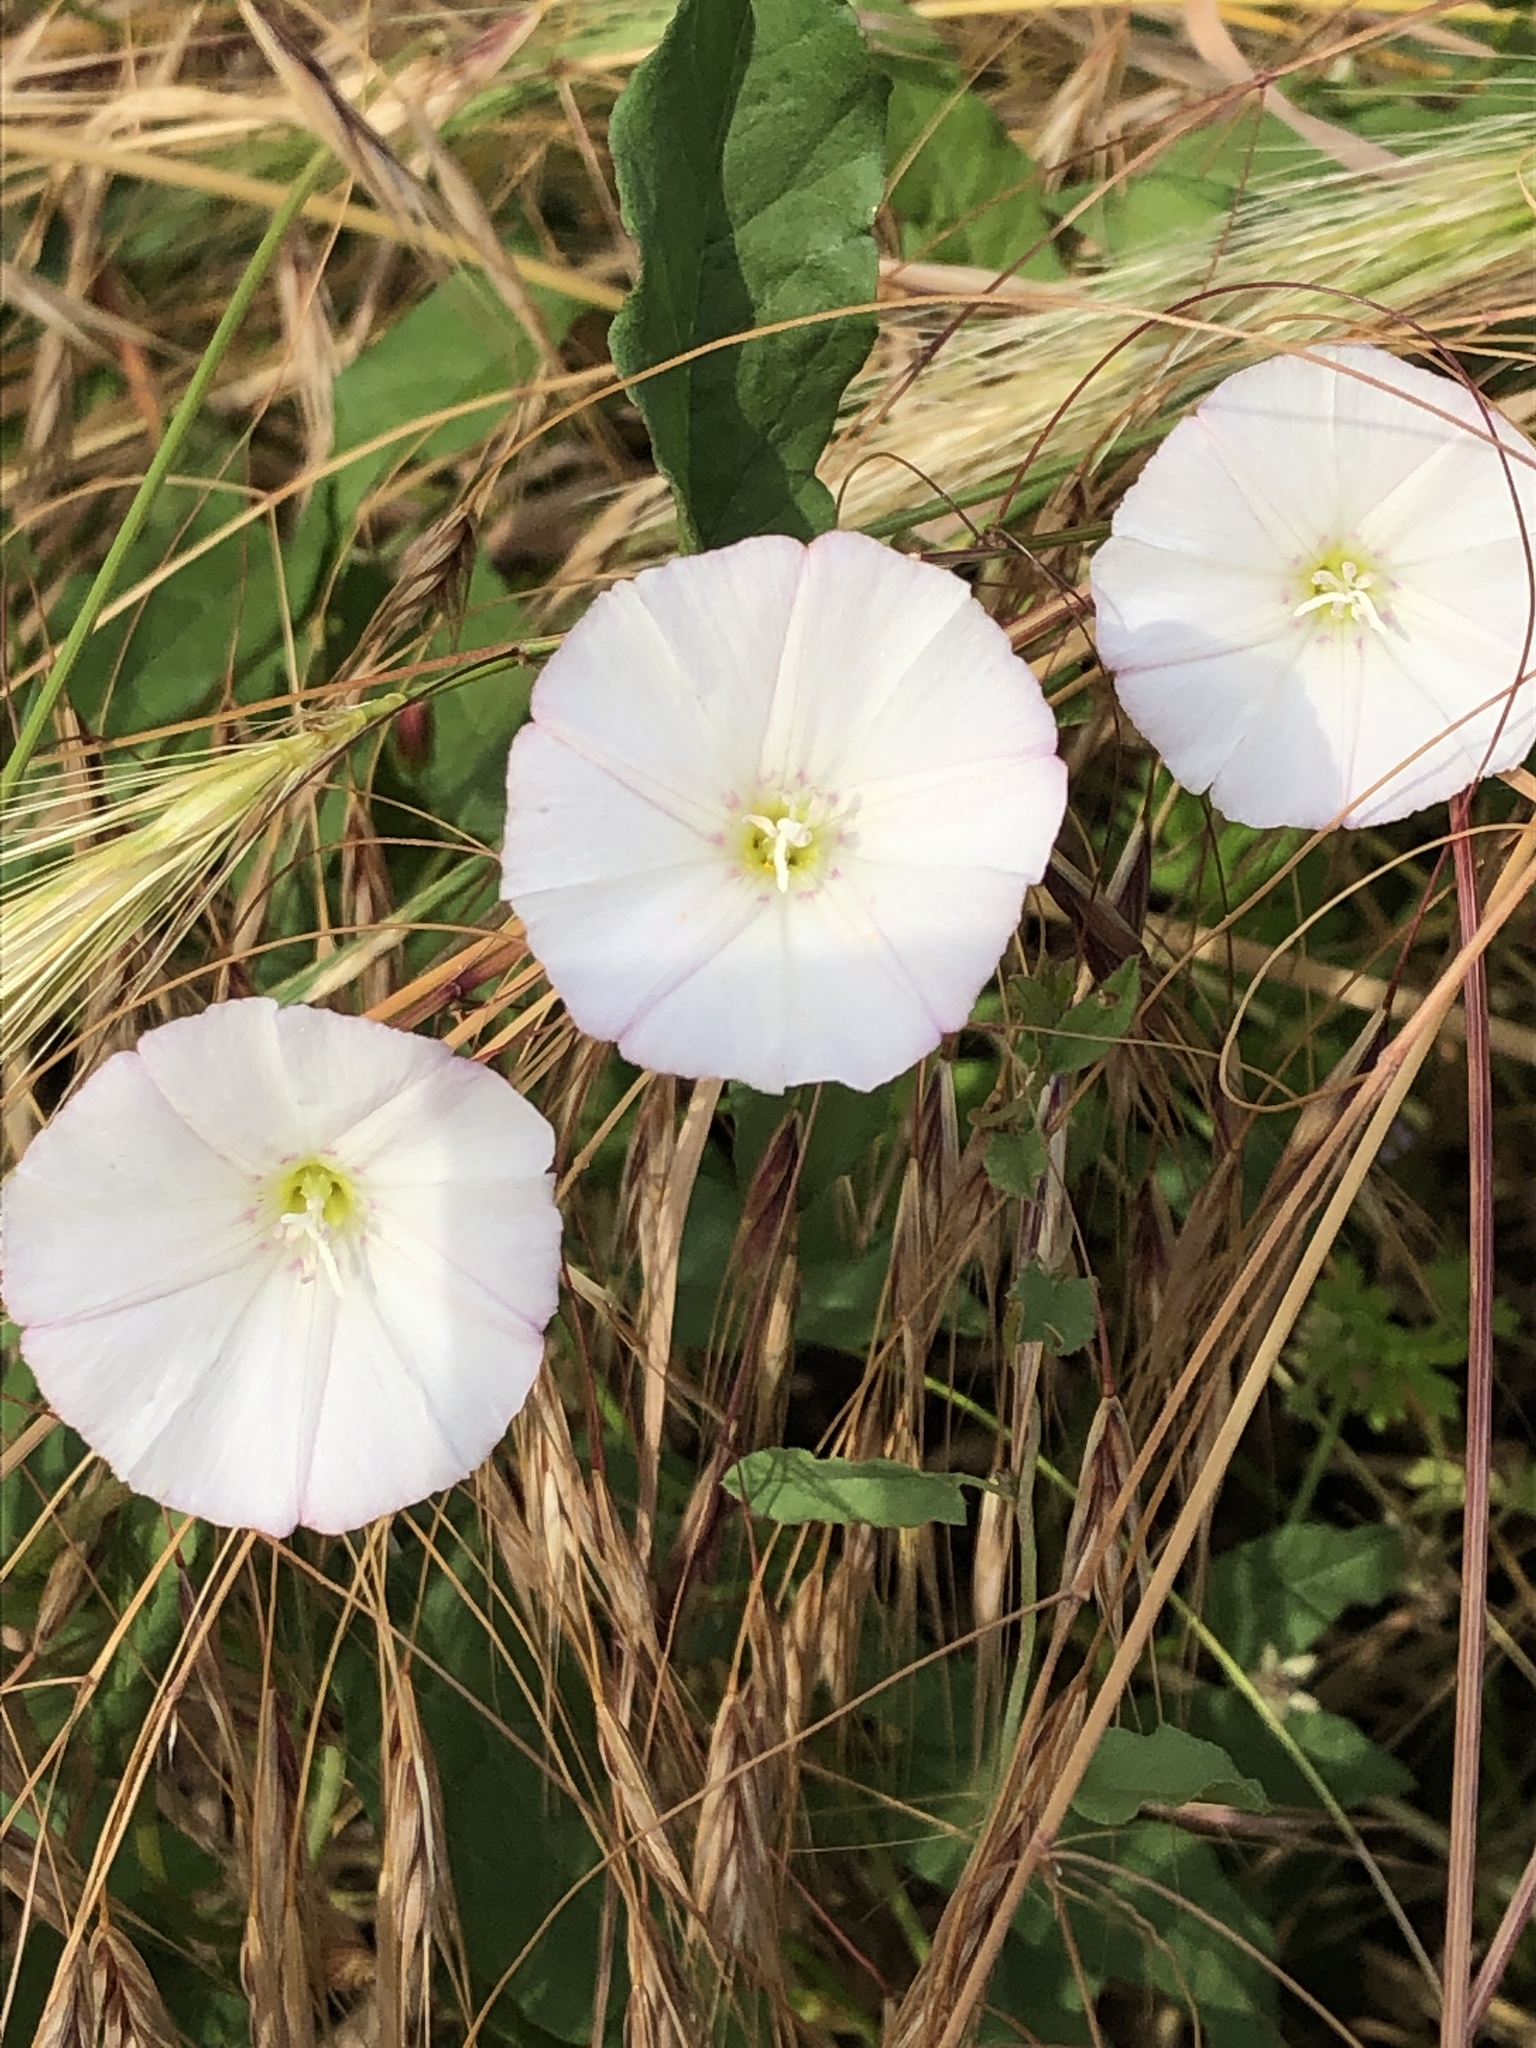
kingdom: Plantae
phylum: Tracheophyta
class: Magnoliopsida
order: Solanales
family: Convolvulaceae
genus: Convolvulus
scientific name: Convolvulus arvensis
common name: Field bindweed
